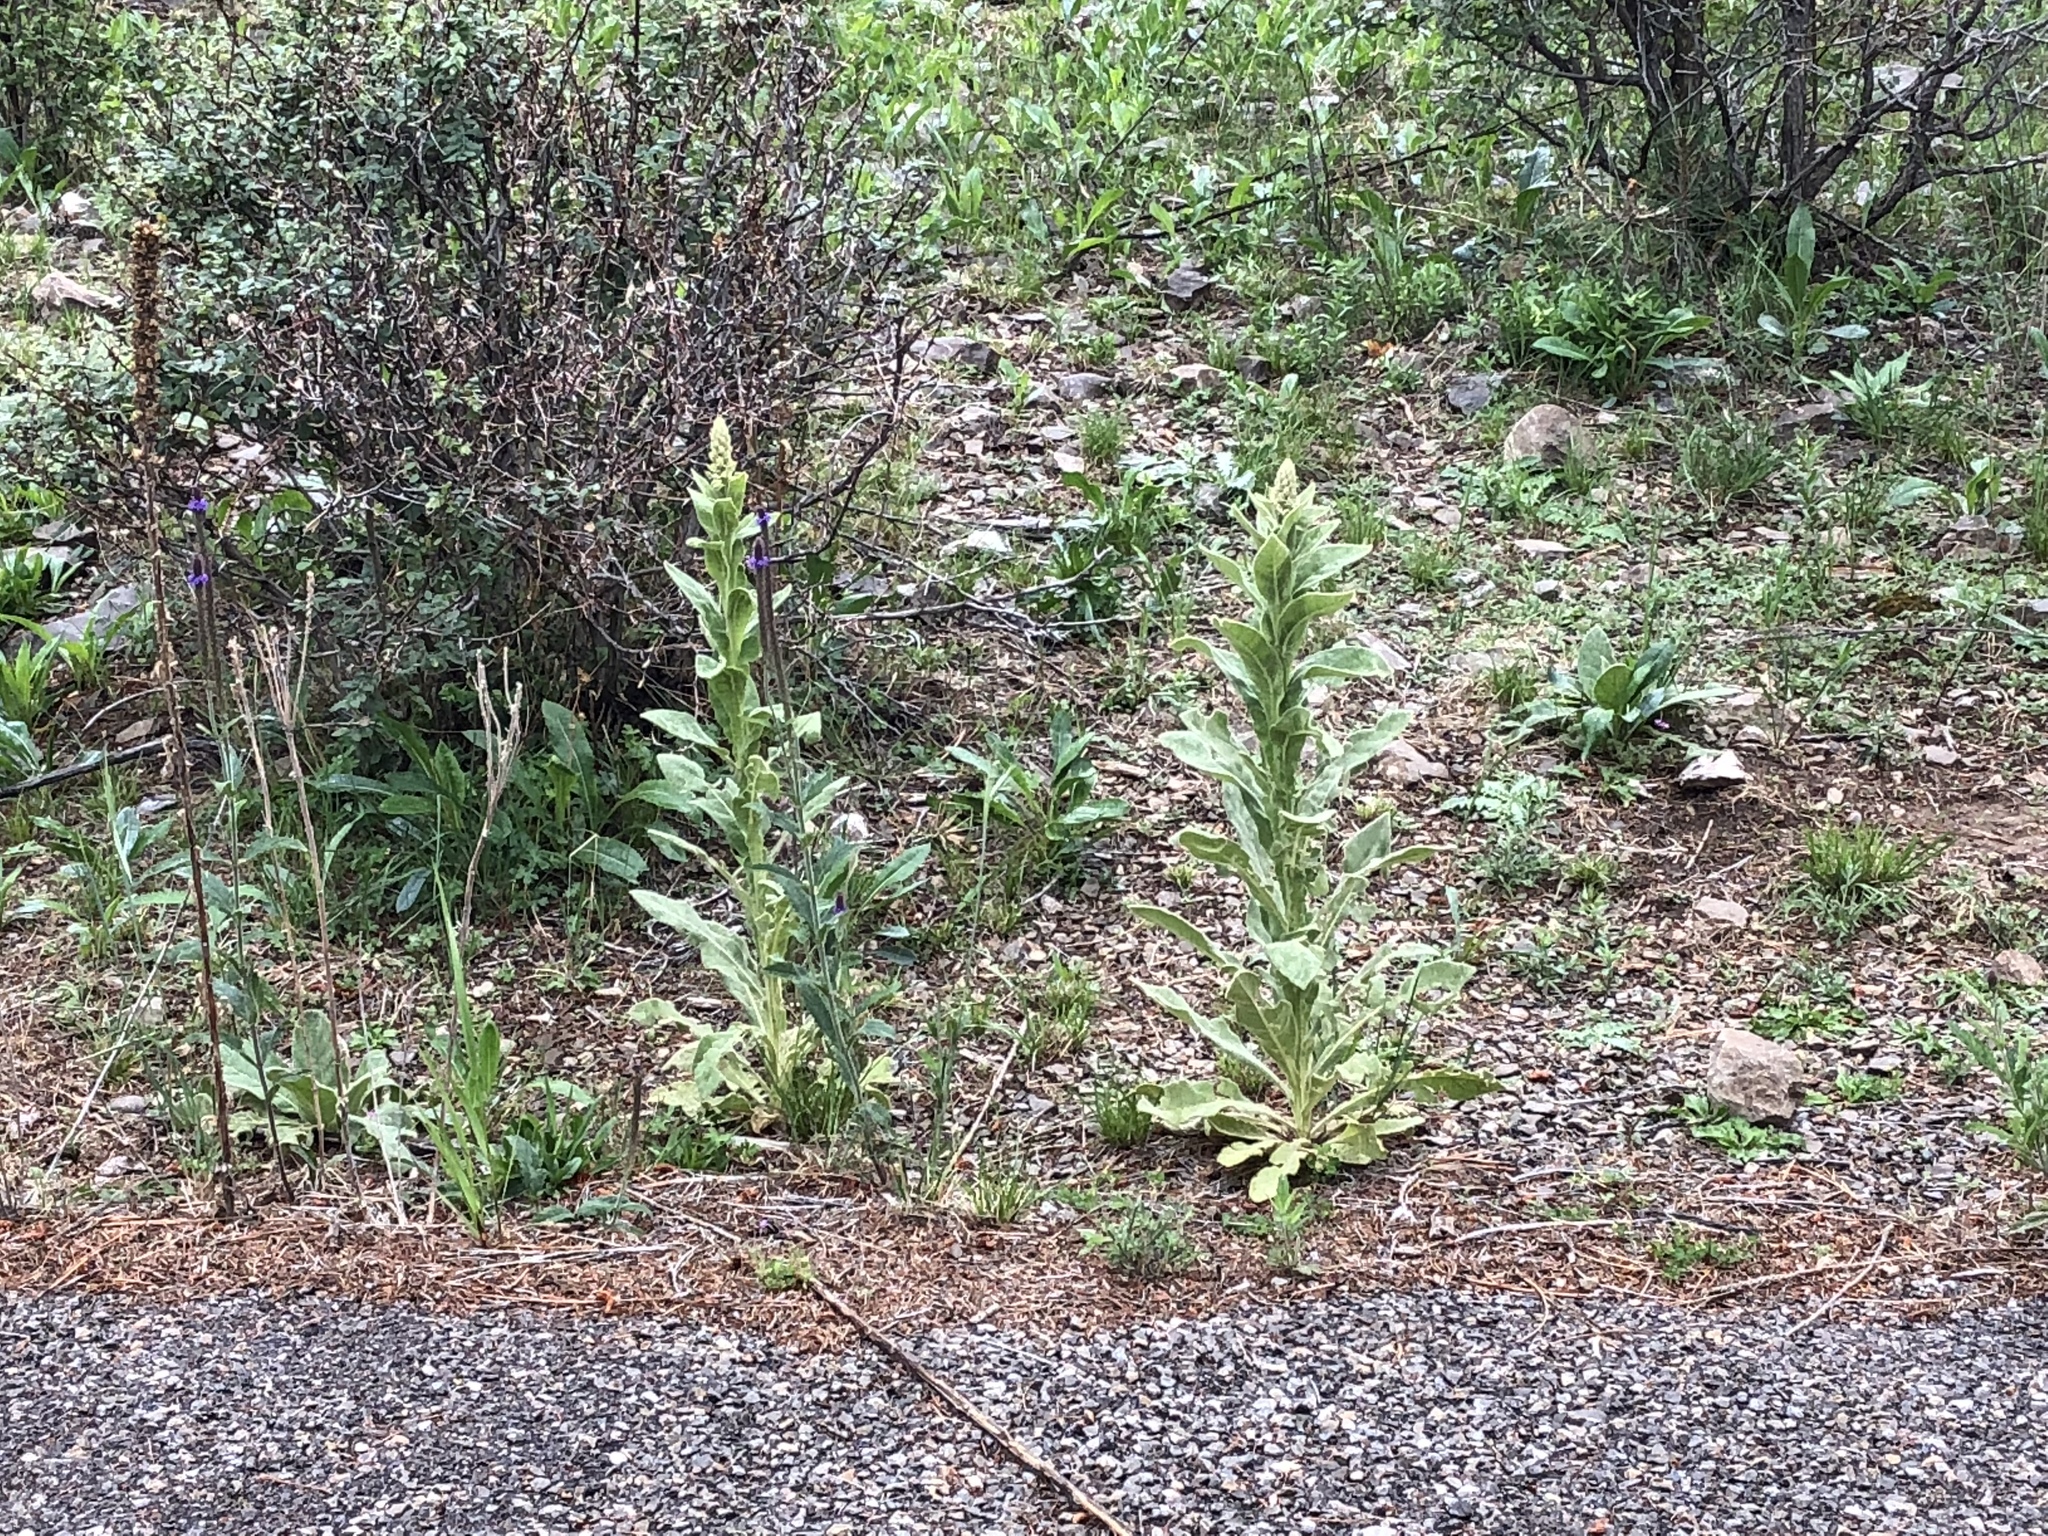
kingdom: Plantae
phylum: Tracheophyta
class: Magnoliopsida
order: Lamiales
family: Scrophulariaceae
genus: Verbascum
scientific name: Verbascum thapsus
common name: Common mullein
